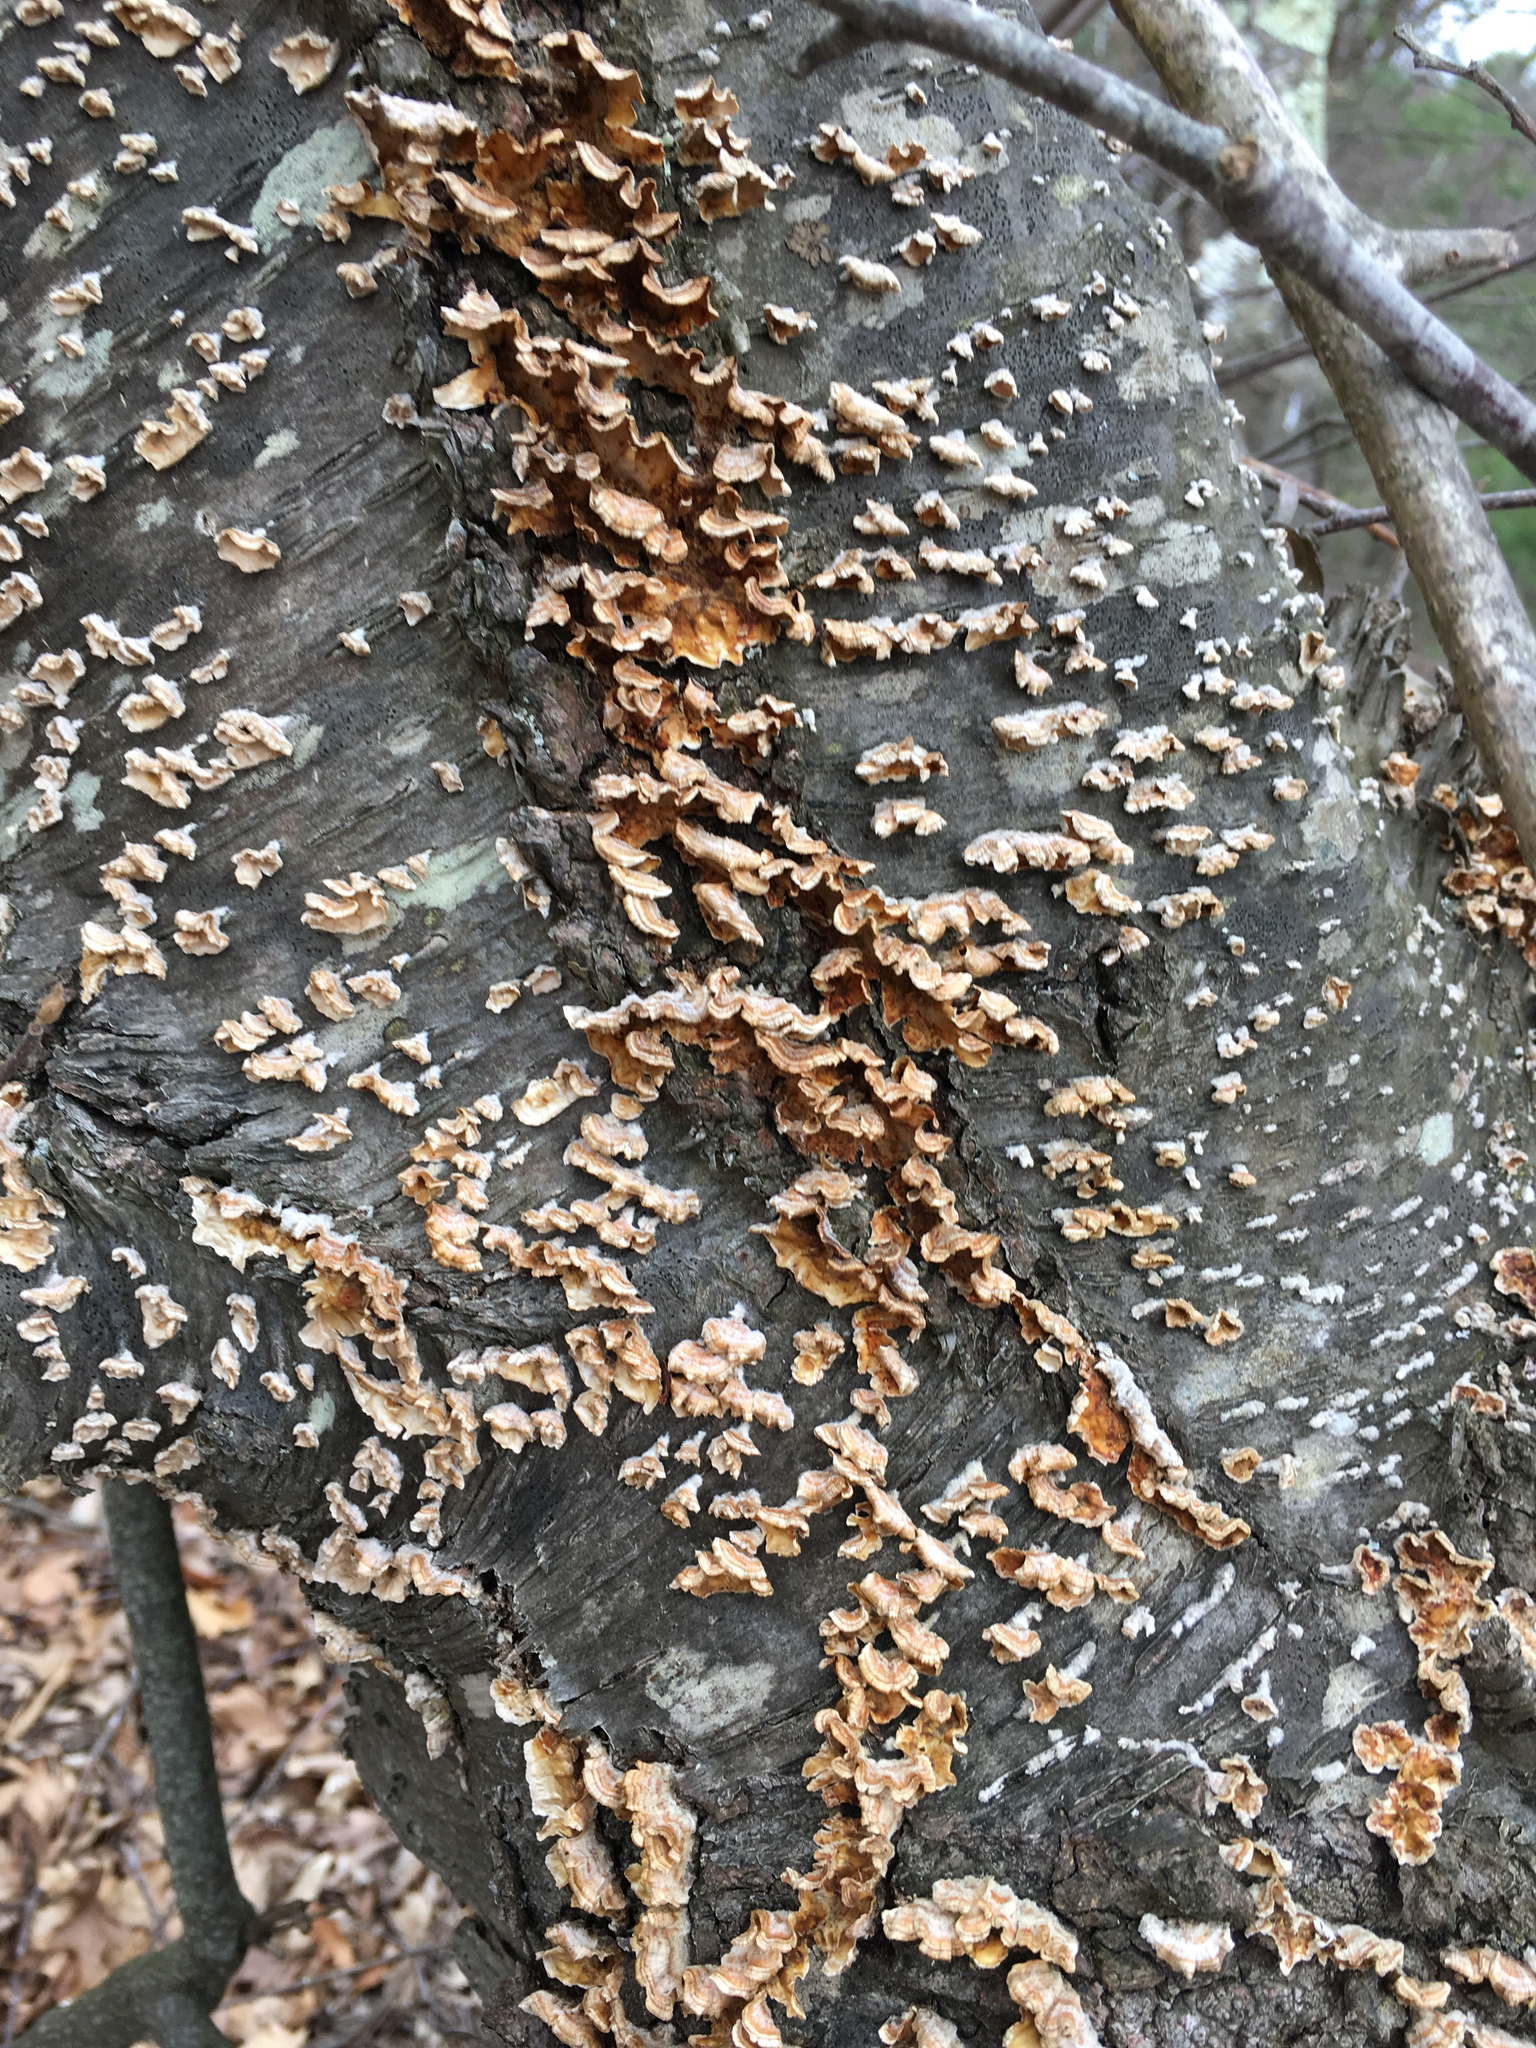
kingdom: Fungi
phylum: Basidiomycota
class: Agaricomycetes
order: Russulales
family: Stereaceae
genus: Stereum
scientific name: Stereum complicatum
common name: Crowded parchment
